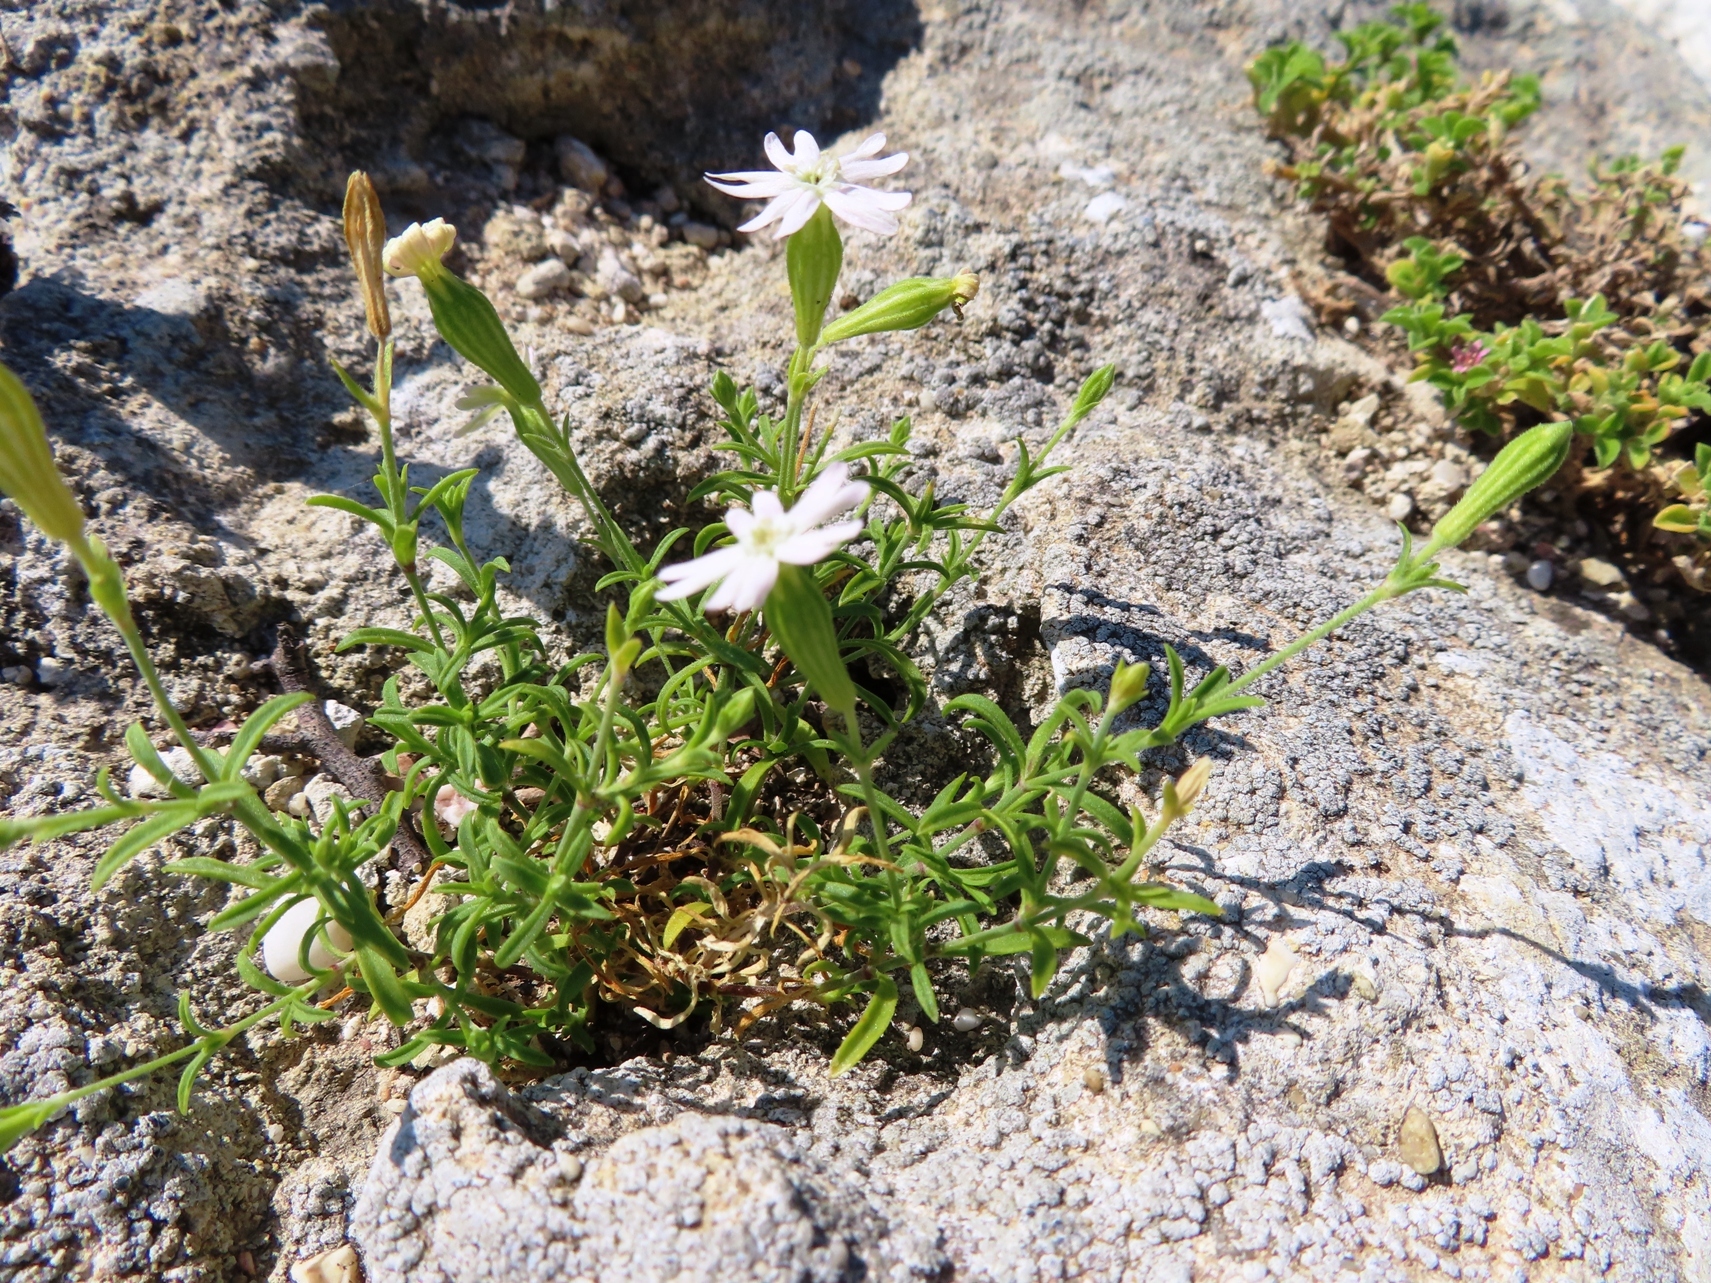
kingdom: Plantae
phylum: Tracheophyta
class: Magnoliopsida
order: Caryophyllales
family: Caryophyllaceae
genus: Silene
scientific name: Silene mundiana
